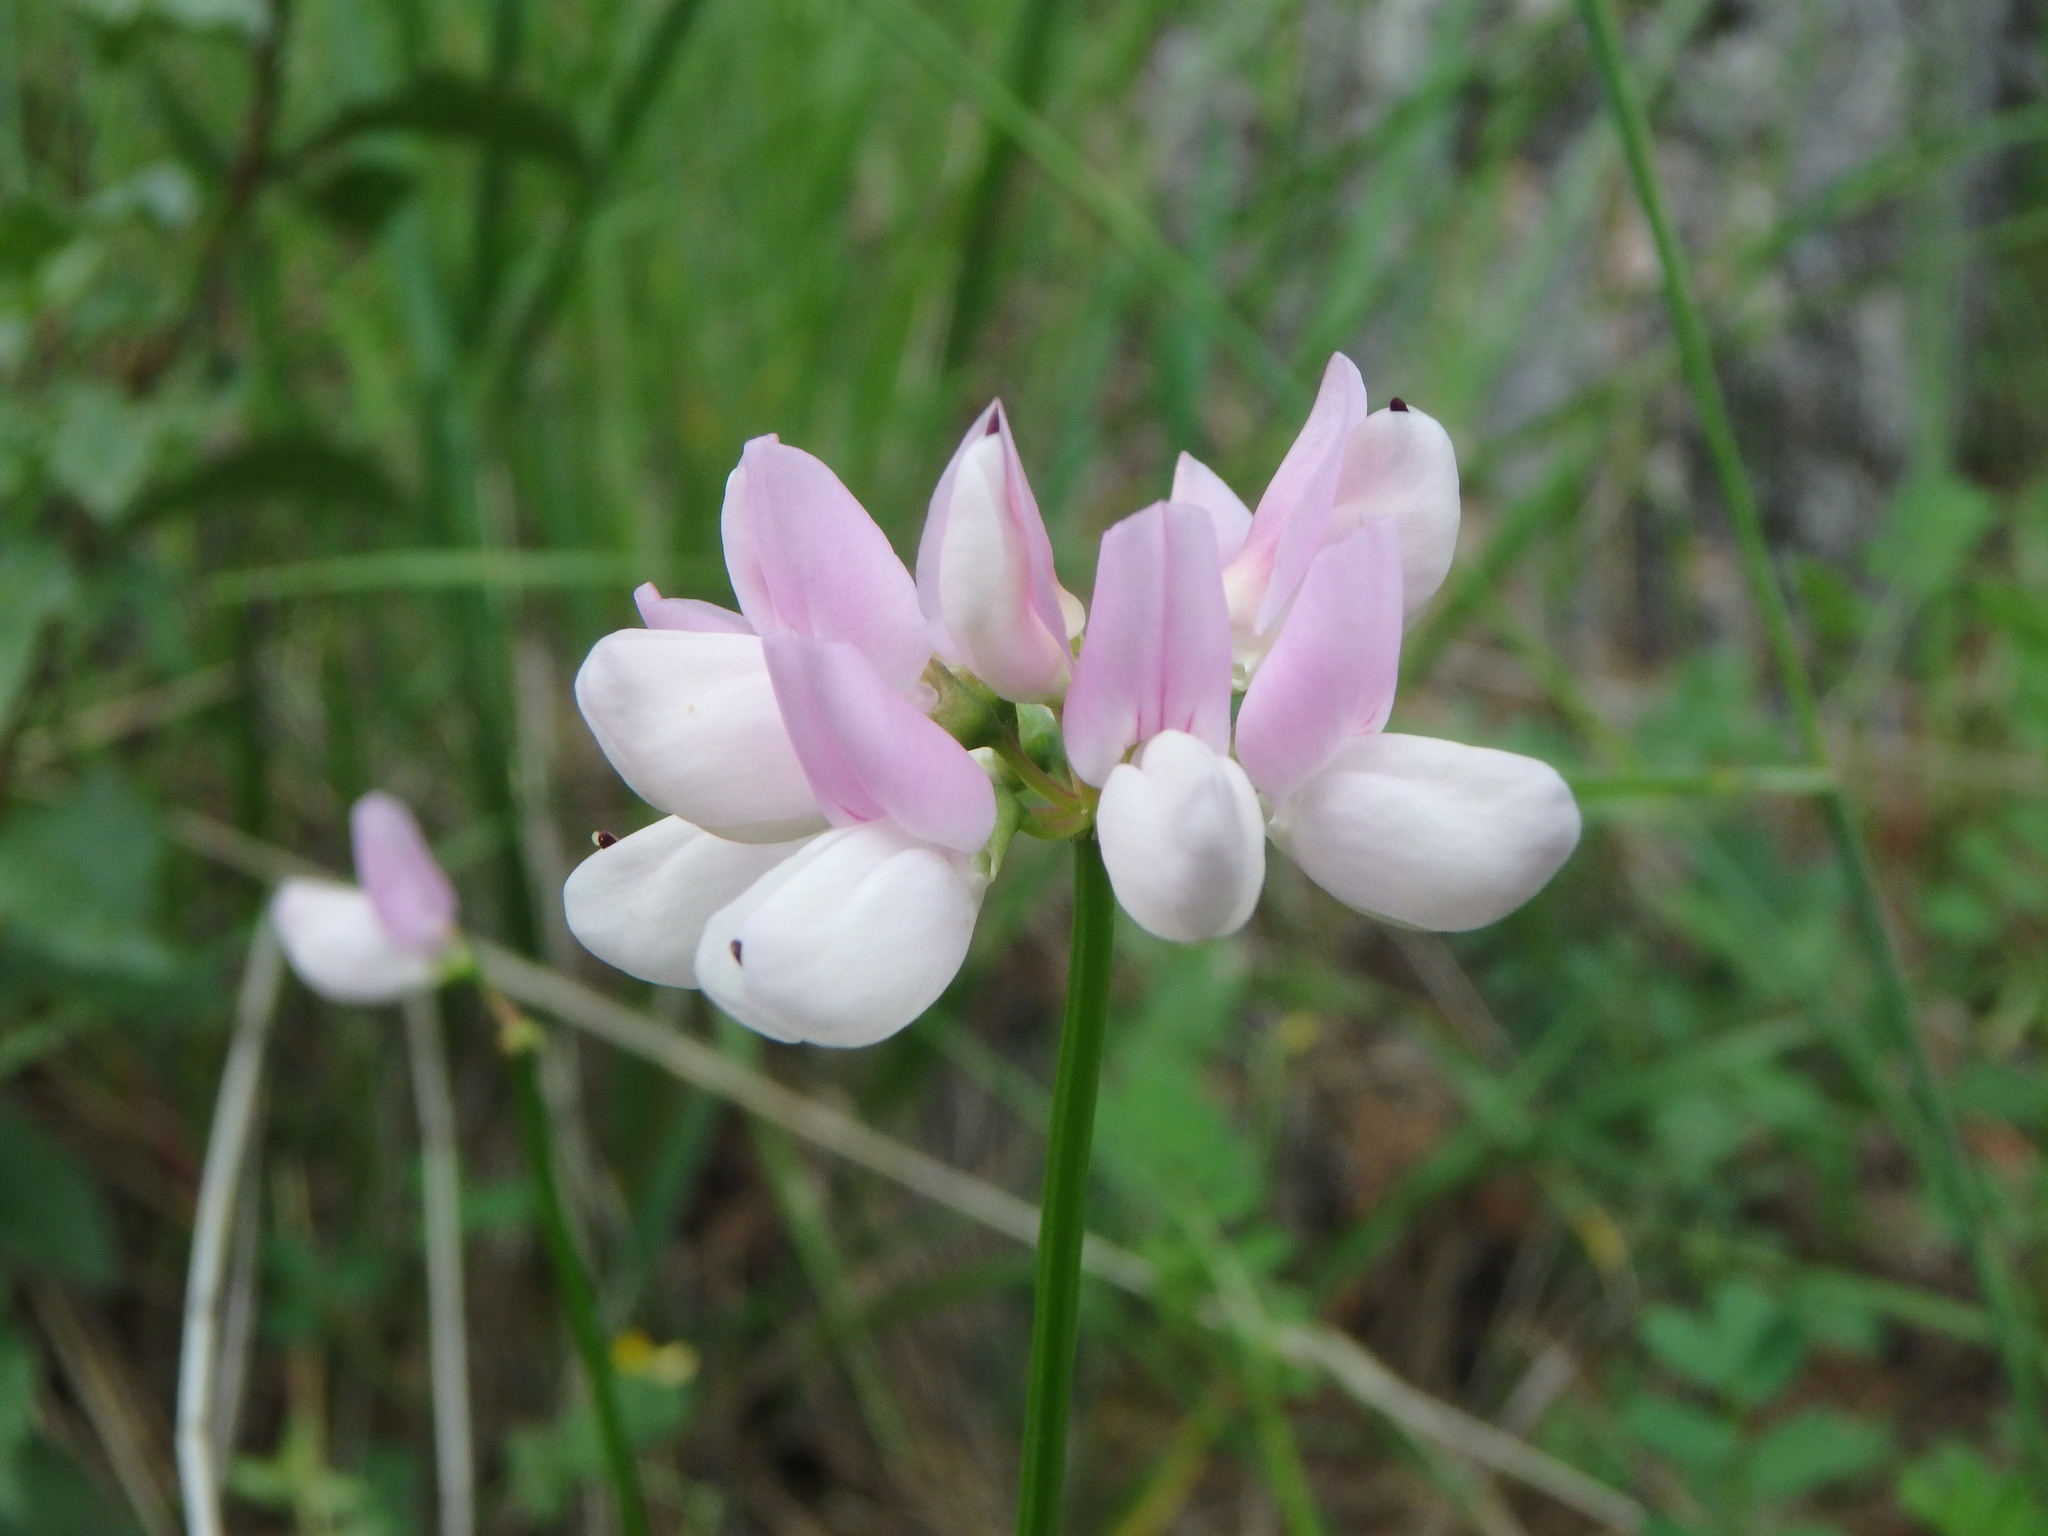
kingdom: Plantae
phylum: Tracheophyta
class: Magnoliopsida
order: Fabales
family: Fabaceae
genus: Coronilla
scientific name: Coronilla varia
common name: Crownvetch
